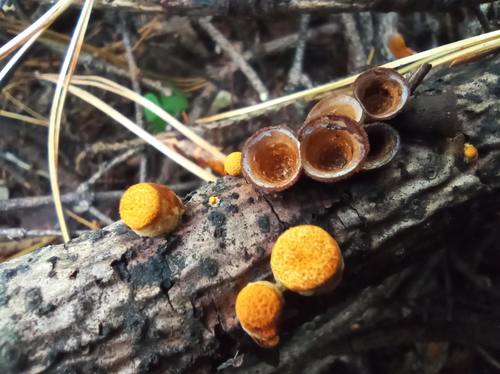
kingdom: Fungi
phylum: Basidiomycota
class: Agaricomycetes
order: Agaricales
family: Nidulariaceae
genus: Crucibulum
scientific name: Crucibulum laeve
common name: Common bird's nest
